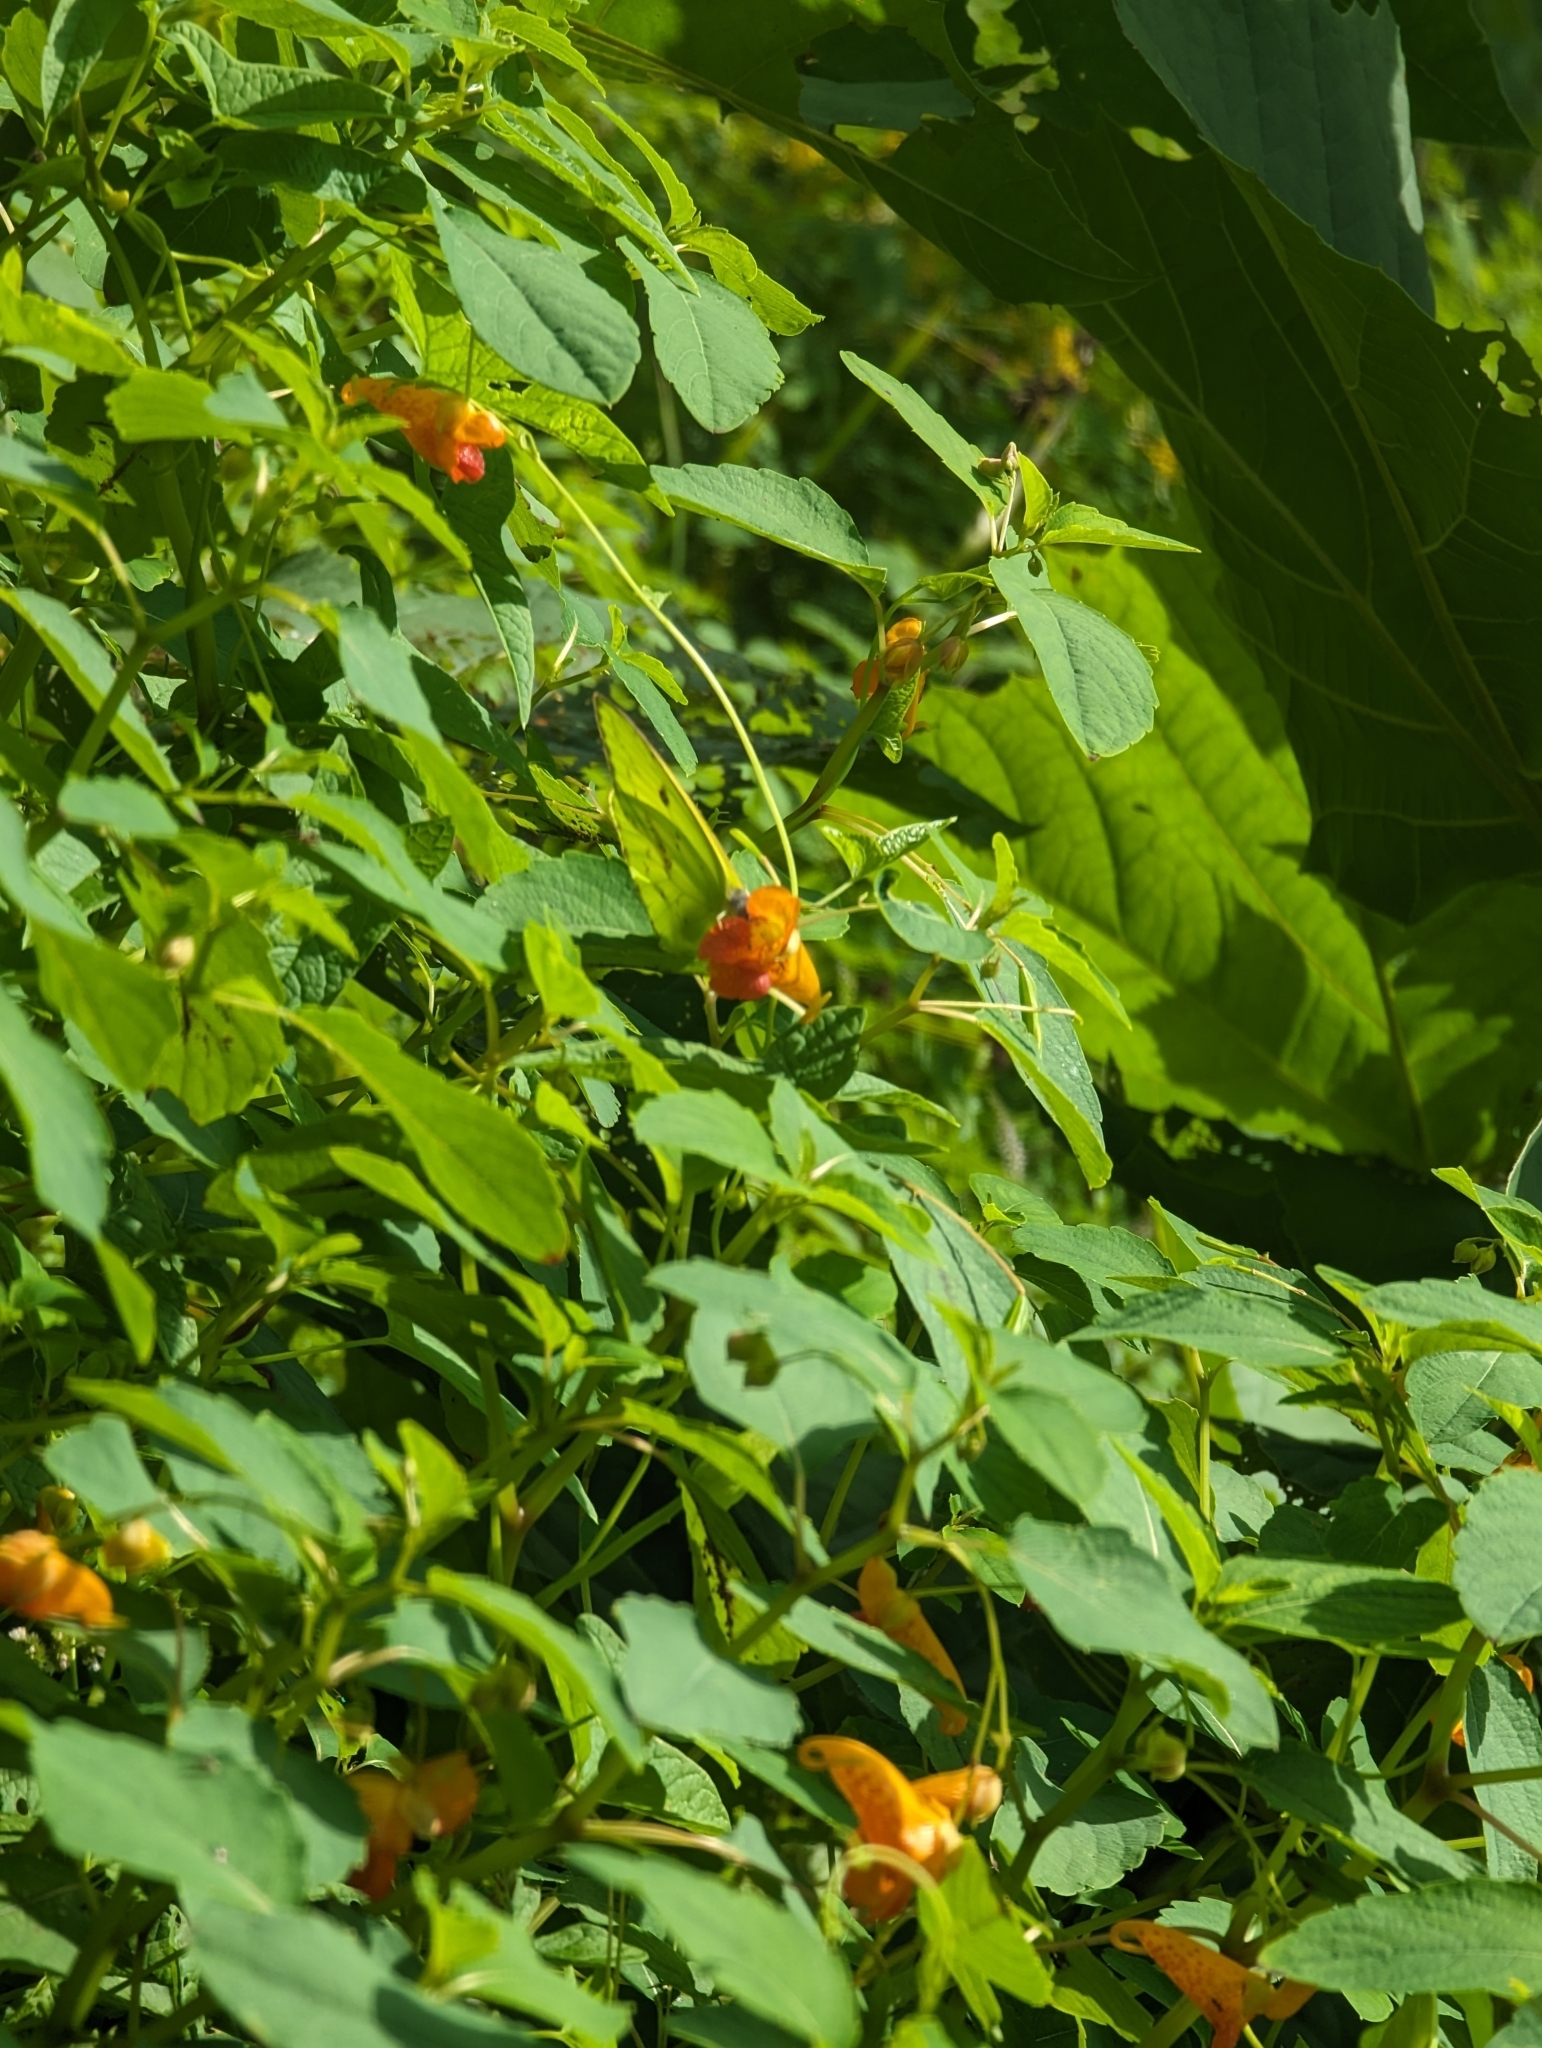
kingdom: Plantae
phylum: Tracheophyta
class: Magnoliopsida
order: Ericales
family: Balsaminaceae
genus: Impatiens
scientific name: Impatiens capensis
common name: Orange balsam
